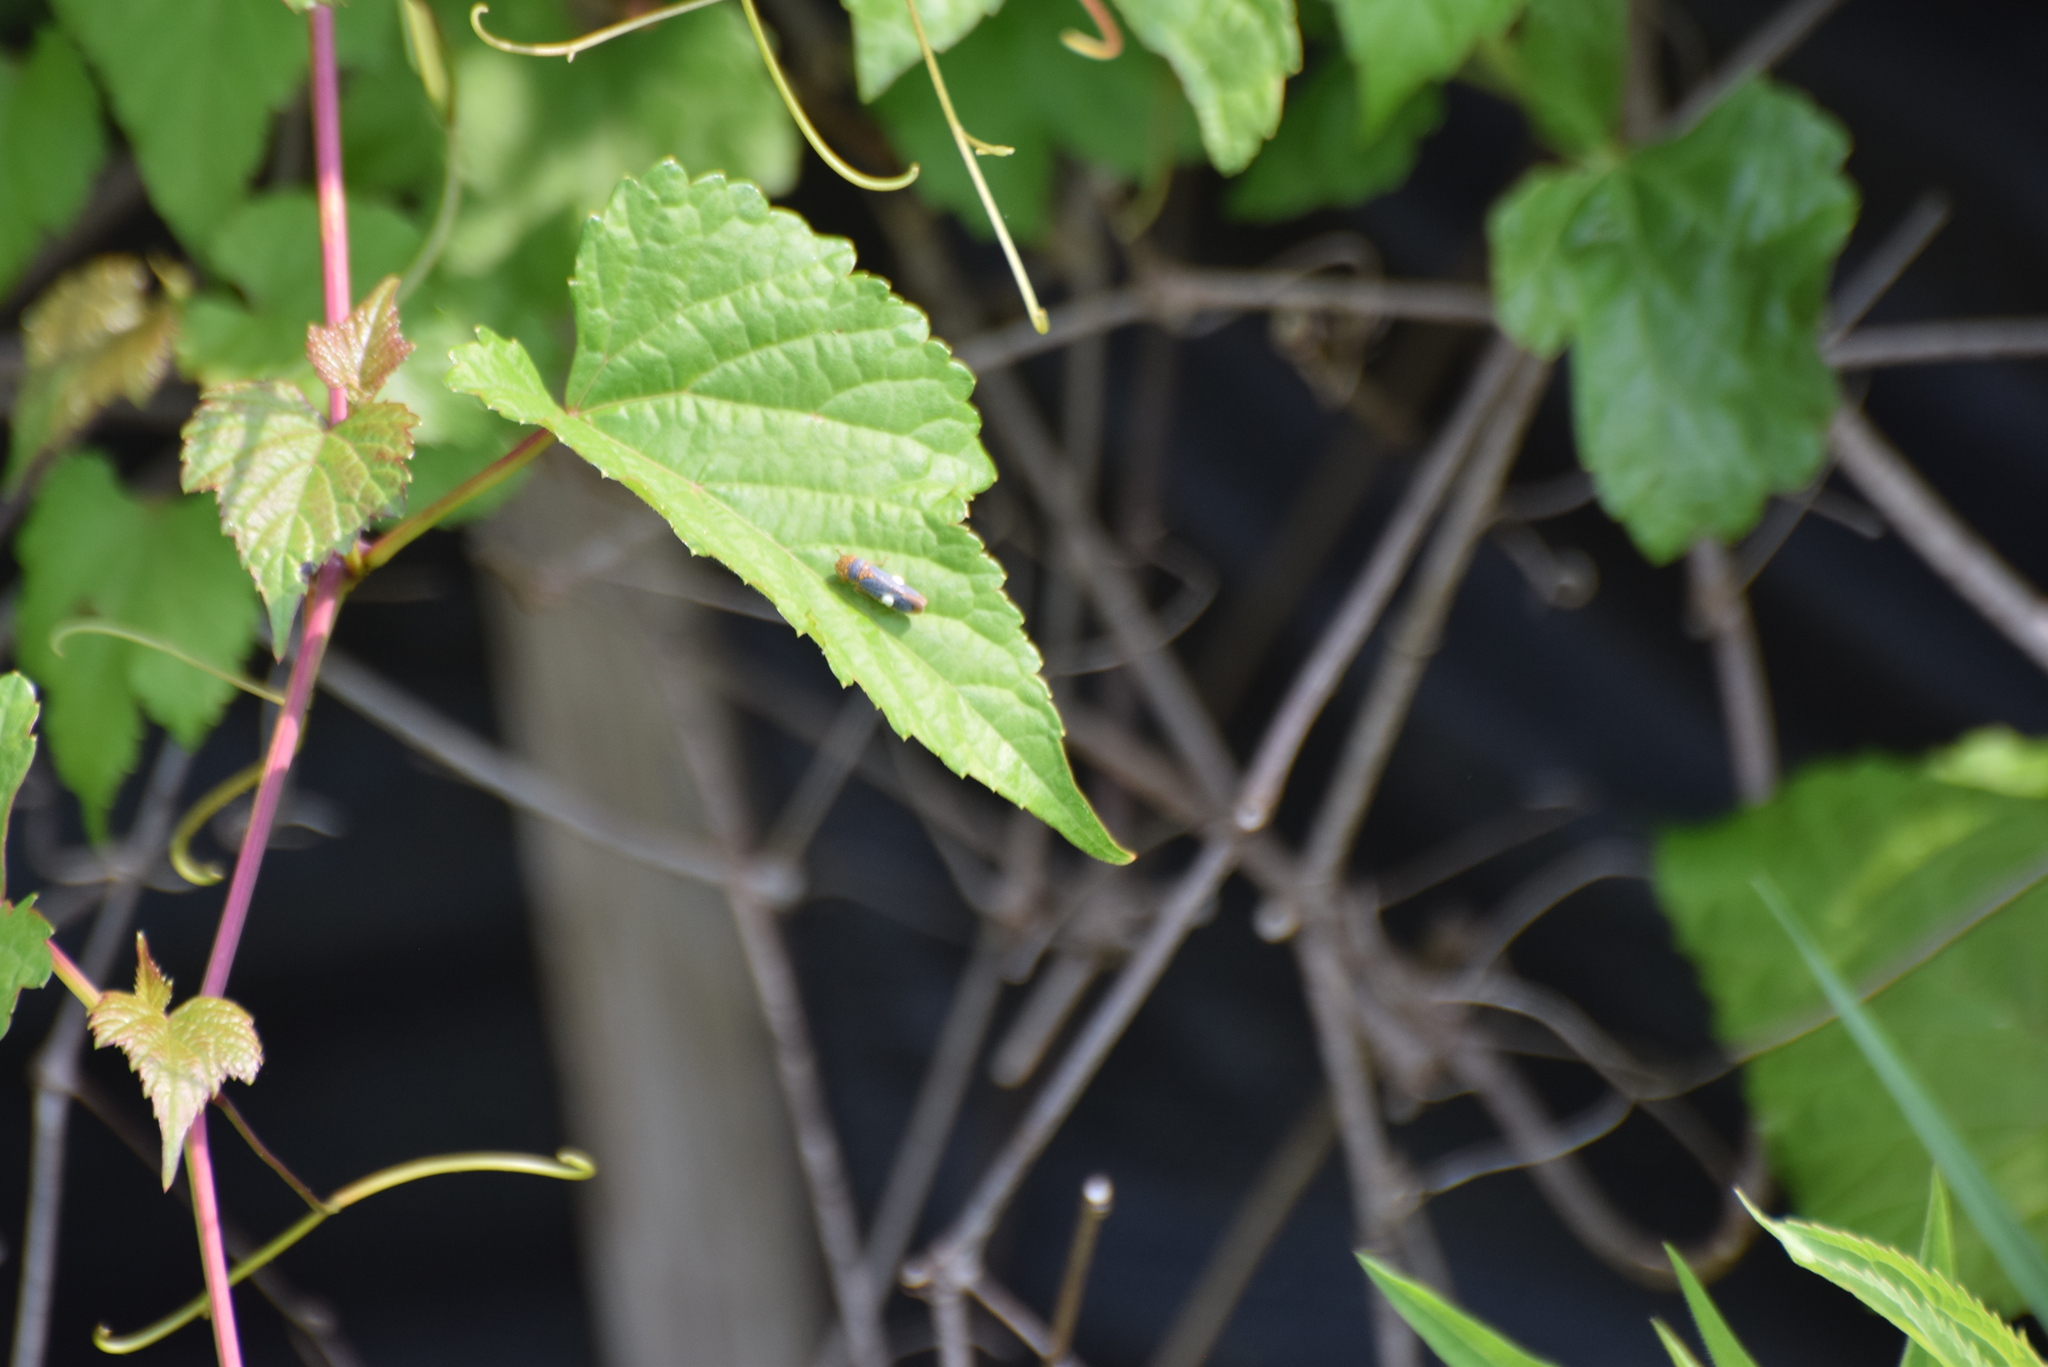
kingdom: Animalia
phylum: Arthropoda
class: Insecta
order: Hemiptera
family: Cicadellidae
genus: Oncometopia
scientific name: Oncometopia orbona
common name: Broad-headed sharpshooter
